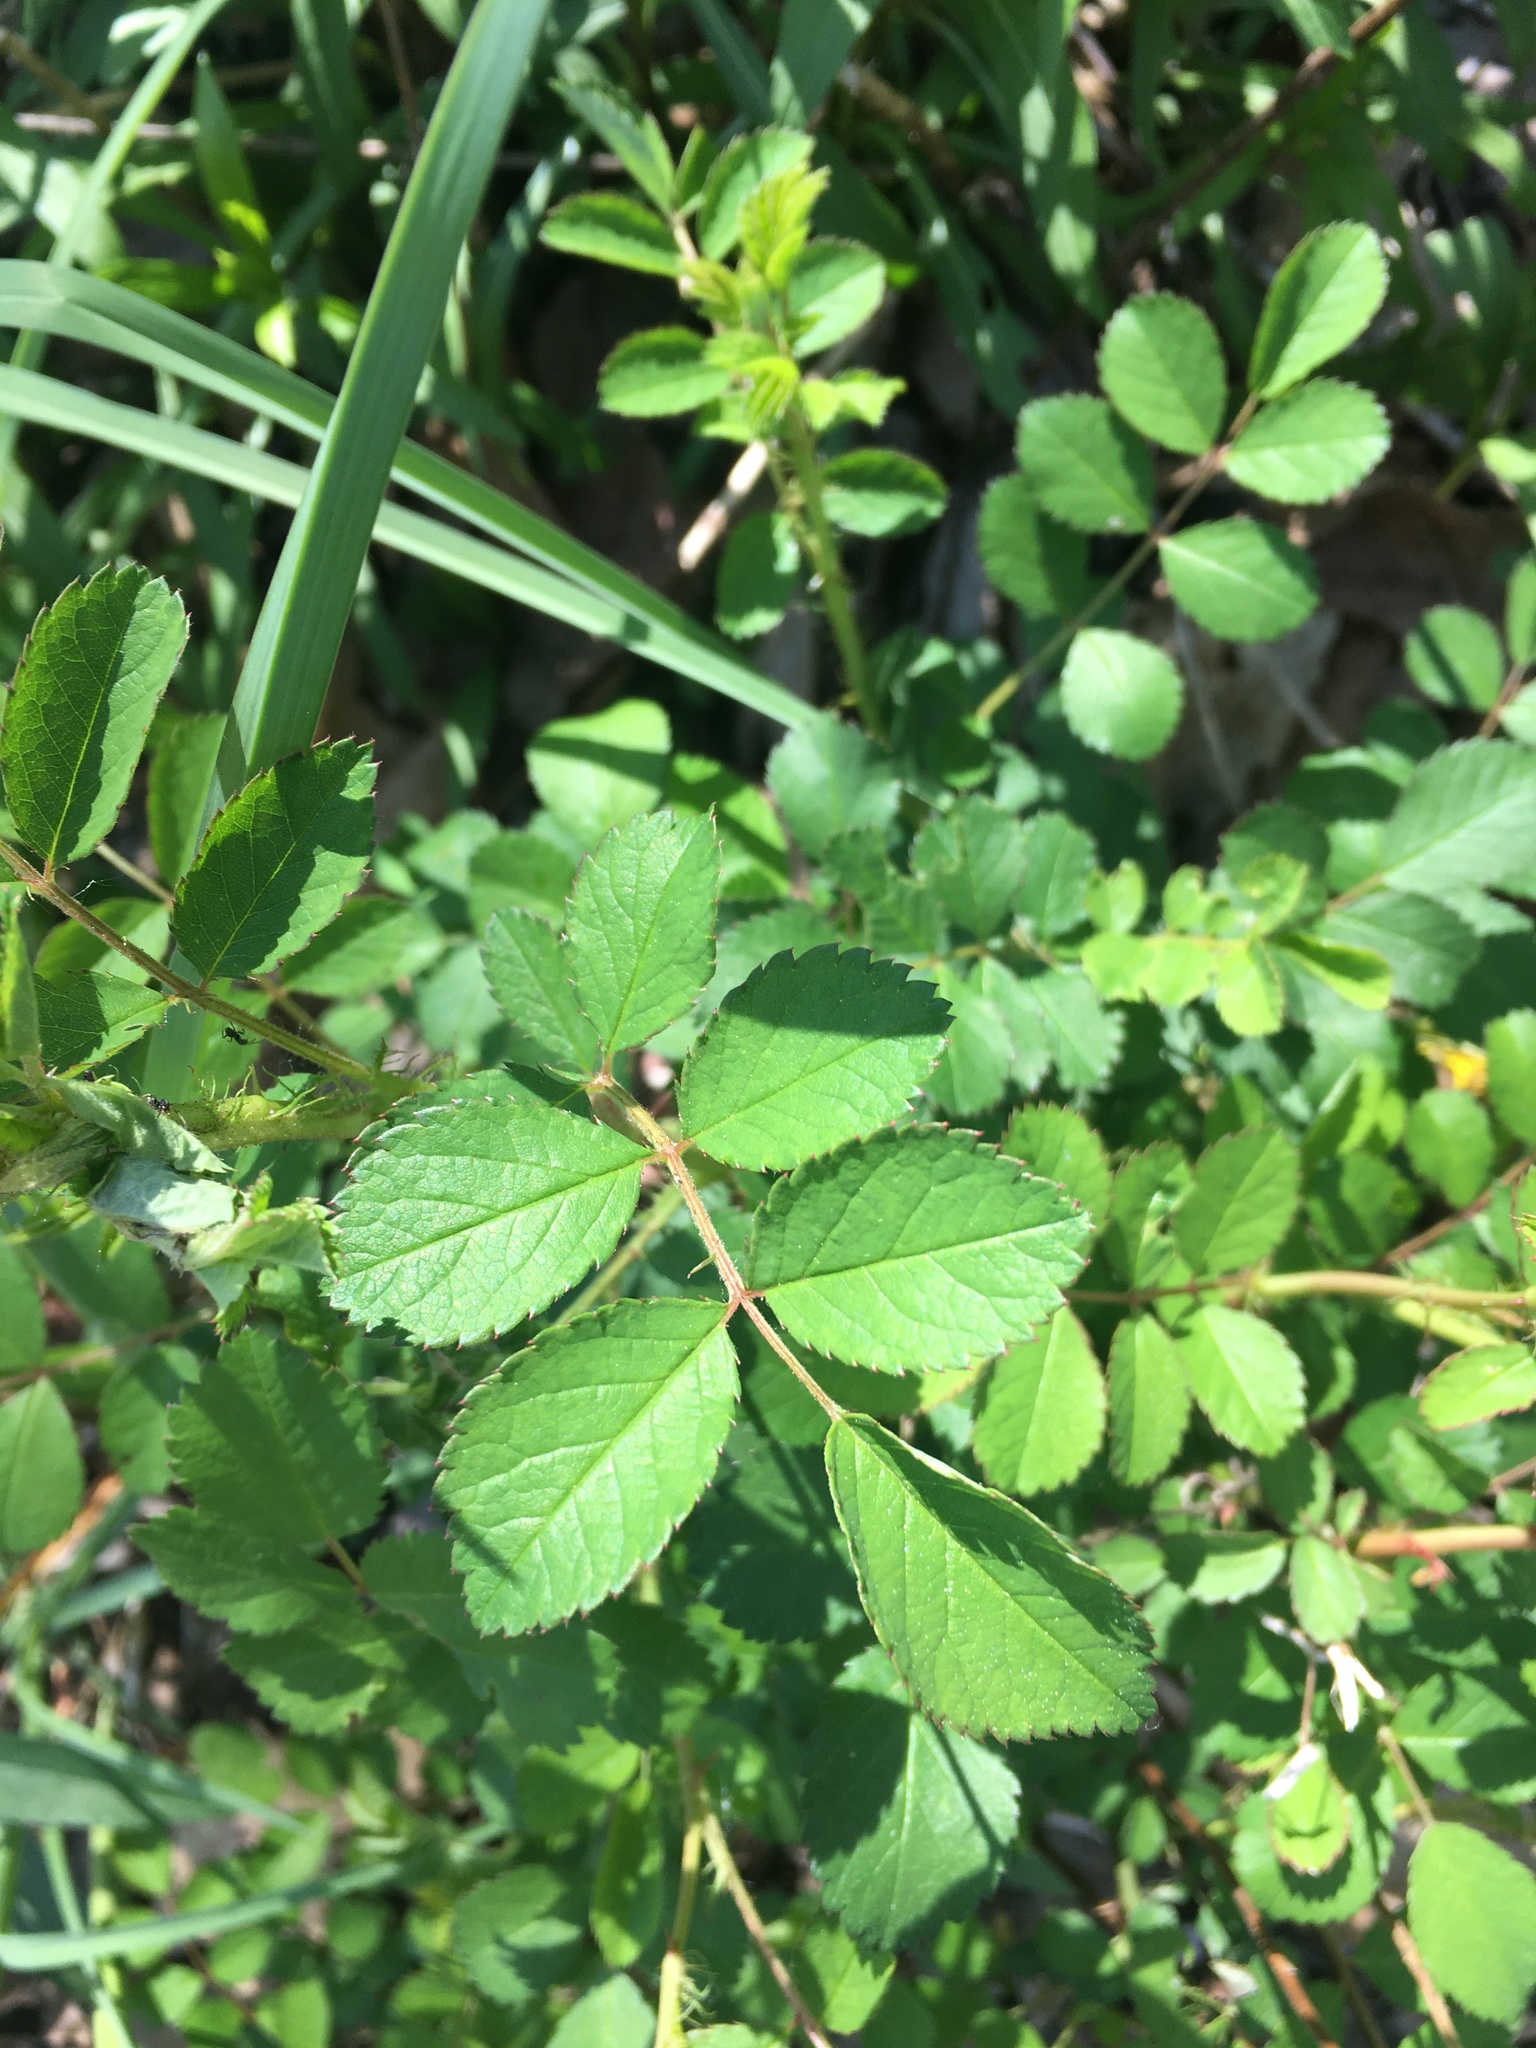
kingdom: Plantae
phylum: Tracheophyta
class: Magnoliopsida
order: Rosales
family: Rosaceae
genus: Rosa
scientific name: Rosa multiflora
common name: Multiflora rose
